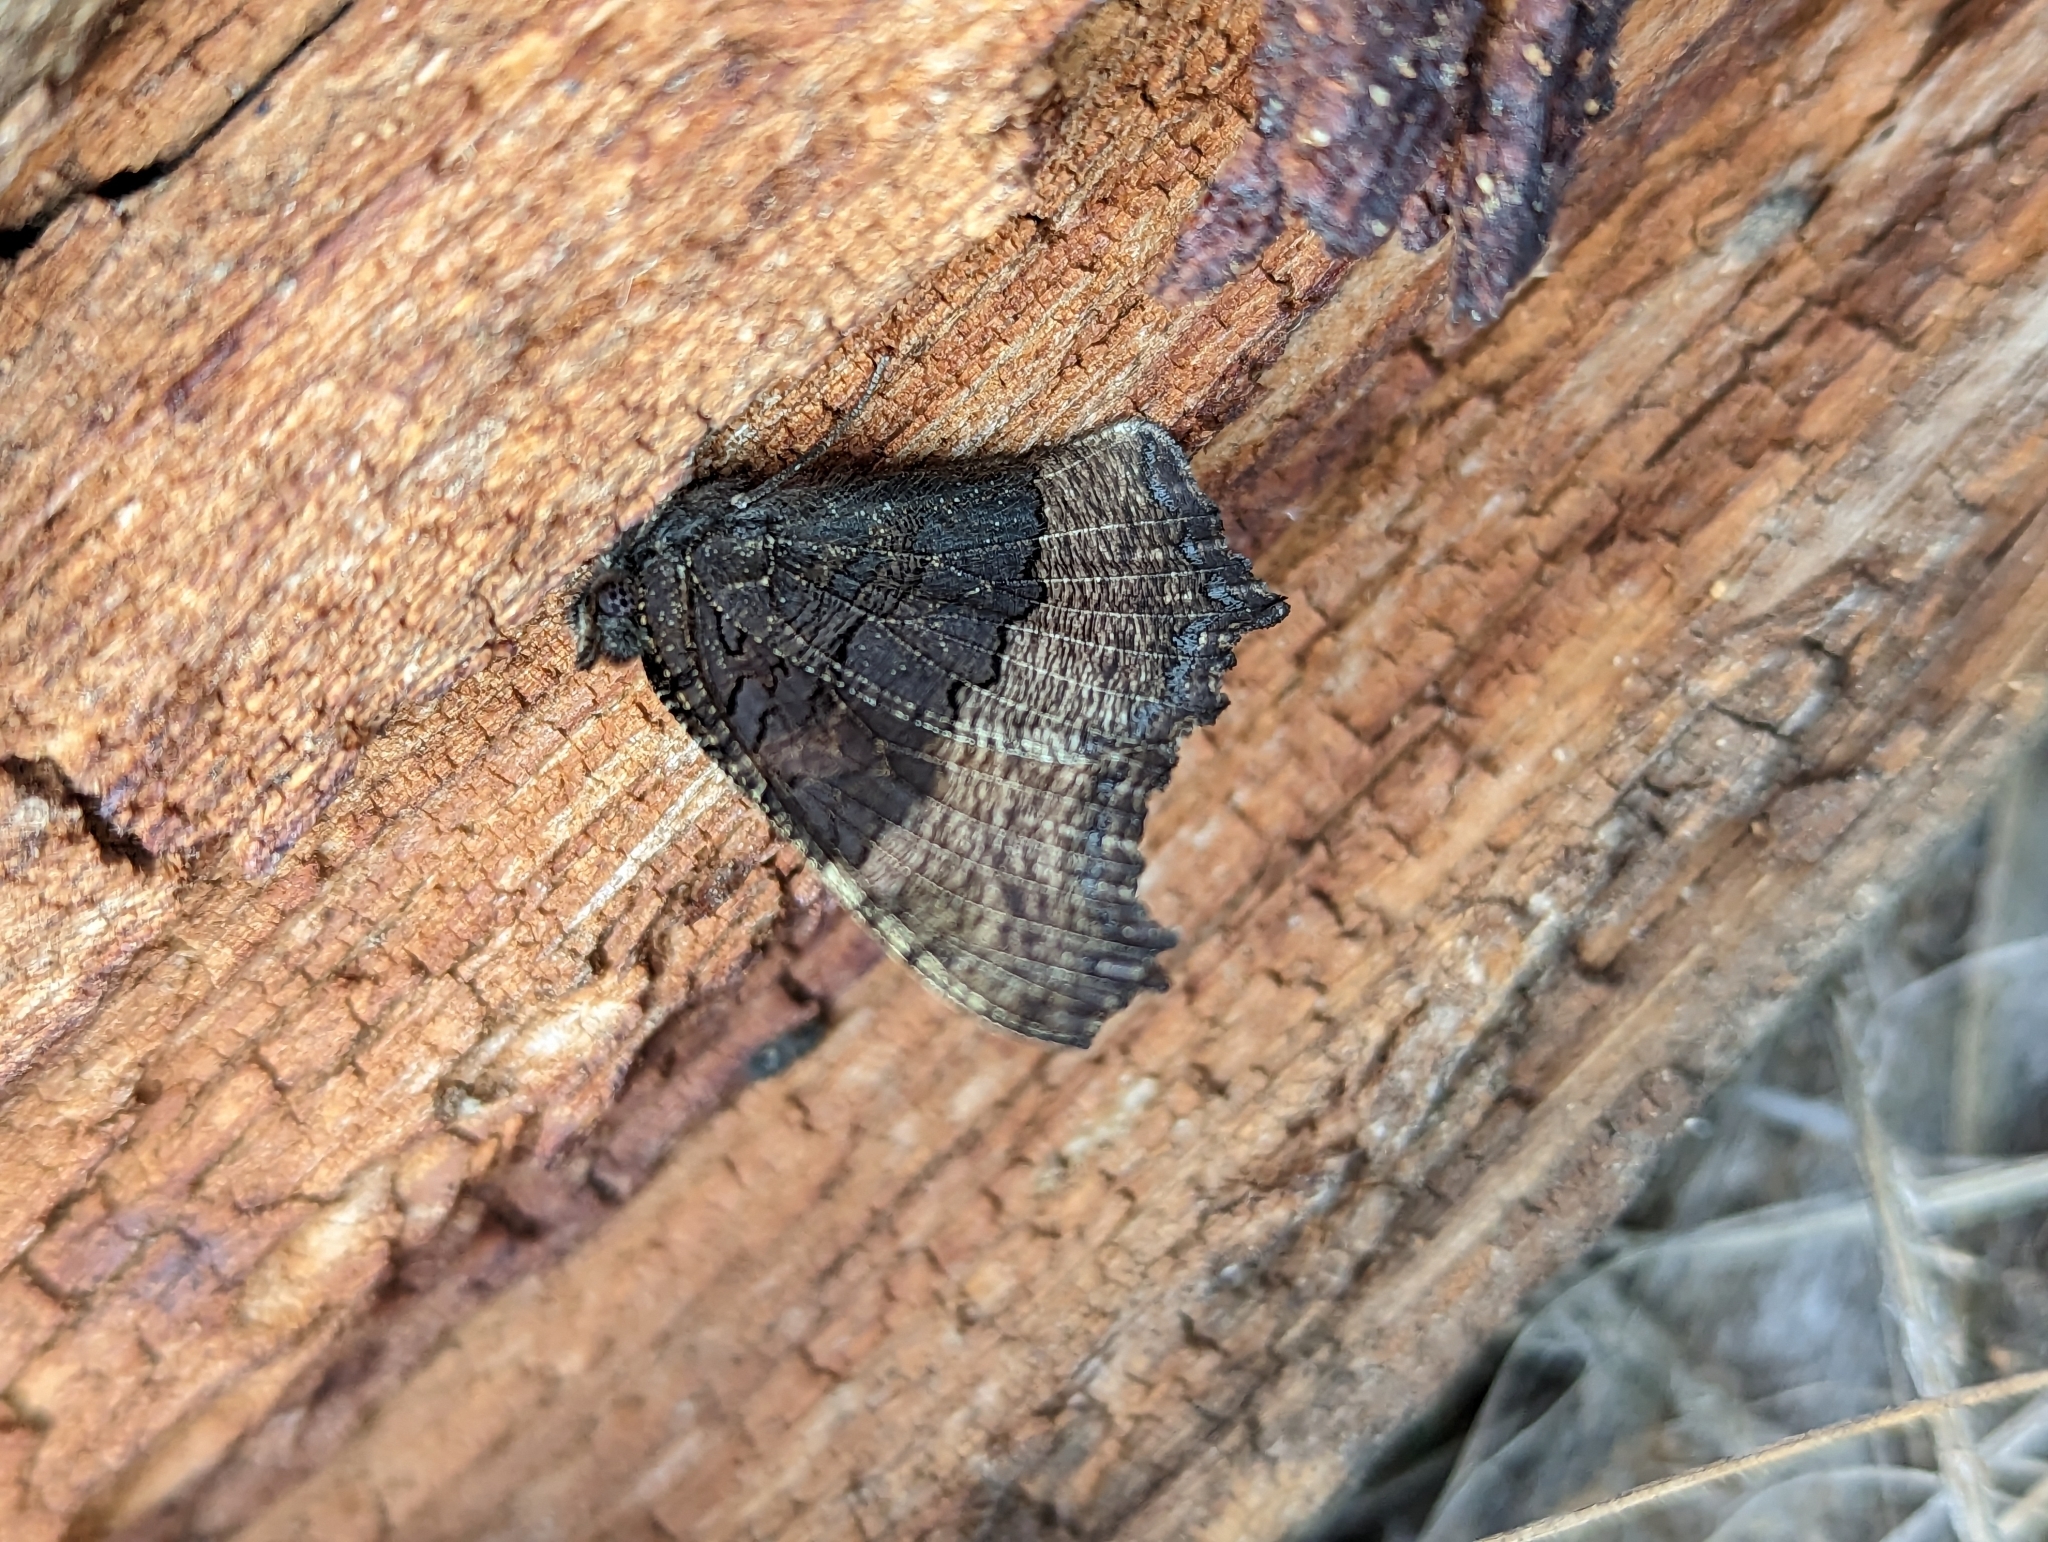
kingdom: Animalia
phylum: Arthropoda
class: Insecta
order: Lepidoptera
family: Nymphalidae
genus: Aglais
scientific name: Aglais milberti
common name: Milbert's tortoiseshell
